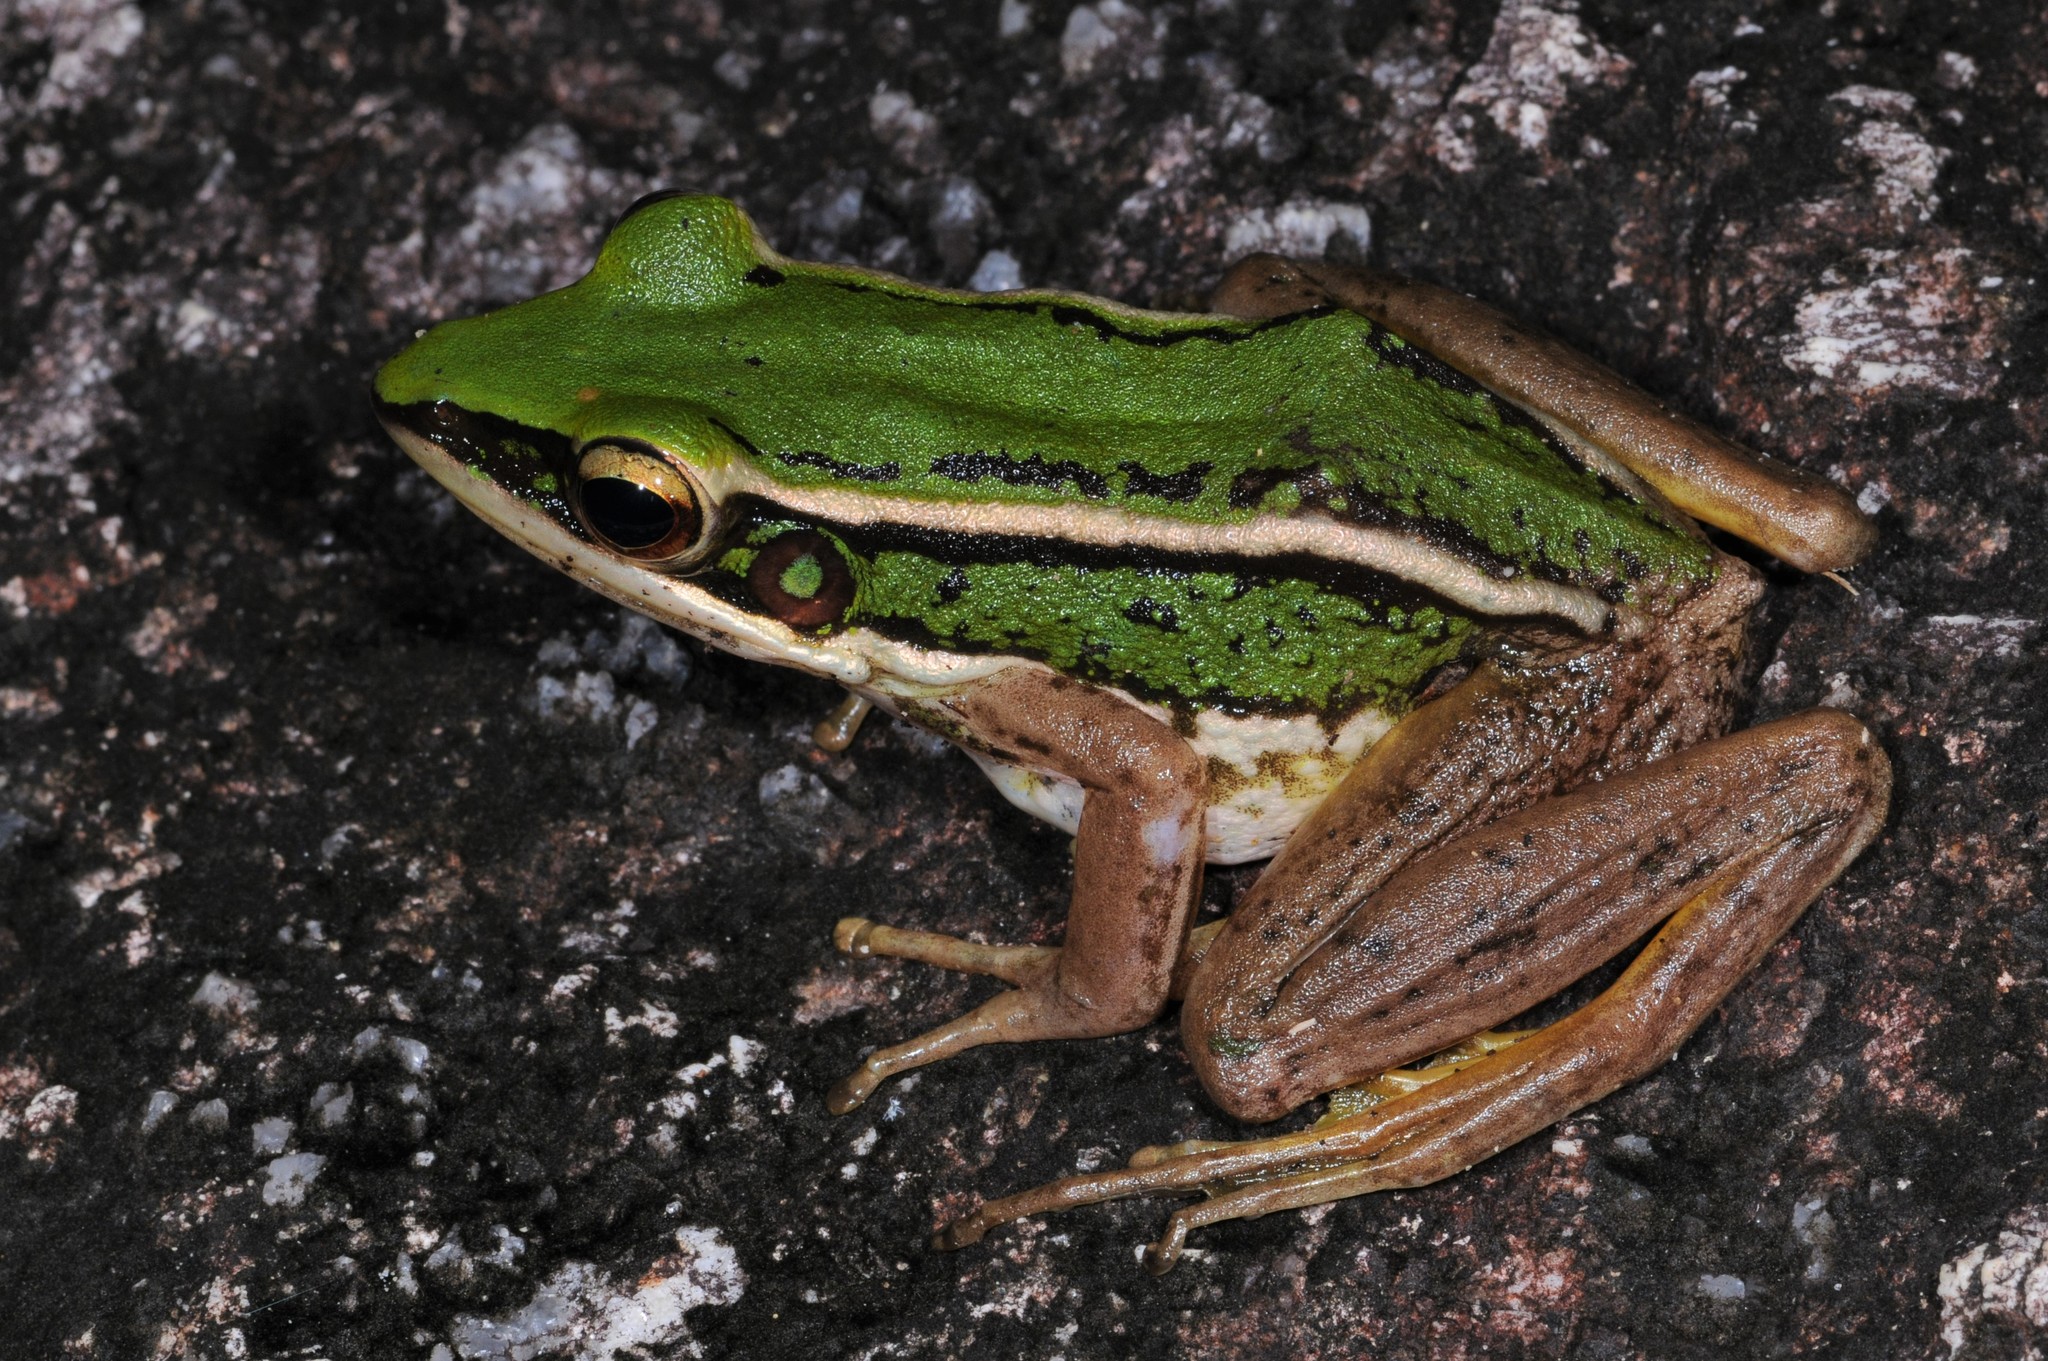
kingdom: Animalia
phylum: Chordata
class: Amphibia
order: Anura
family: Ranidae
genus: Hylarana
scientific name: Hylarana erythraea
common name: Common green frog/green paddy frog/leaf frog
